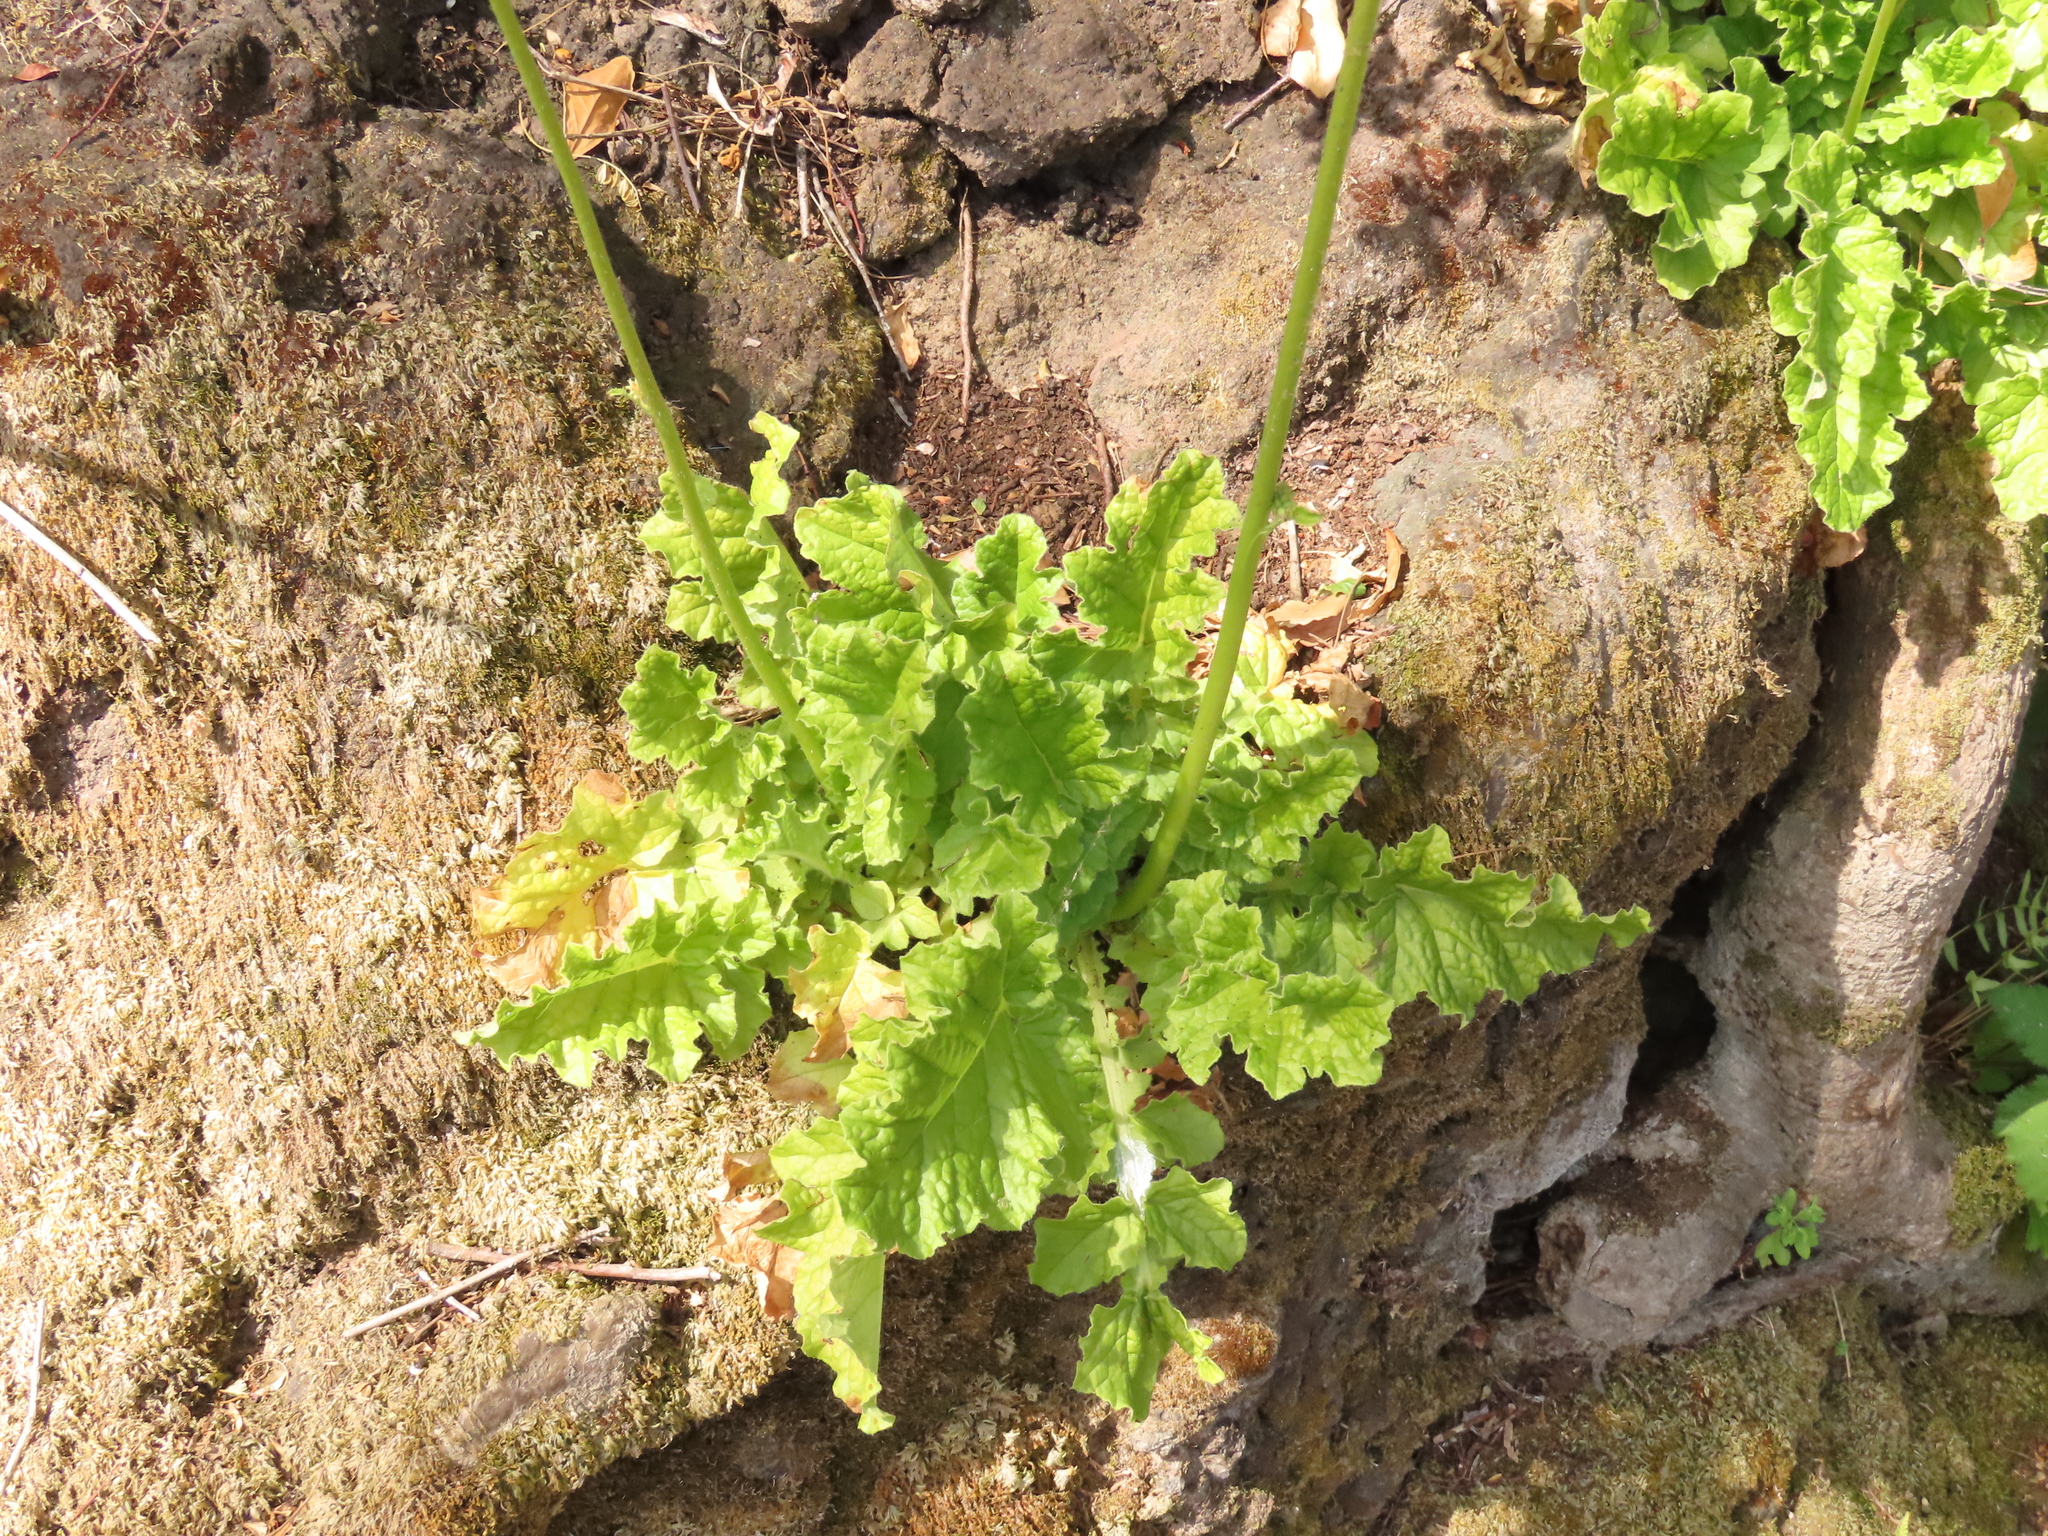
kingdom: Plantae
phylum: Tracheophyta
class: Magnoliopsida
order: Geraniales
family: Francoaceae
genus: Francoa
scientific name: Francoa appendiculata
